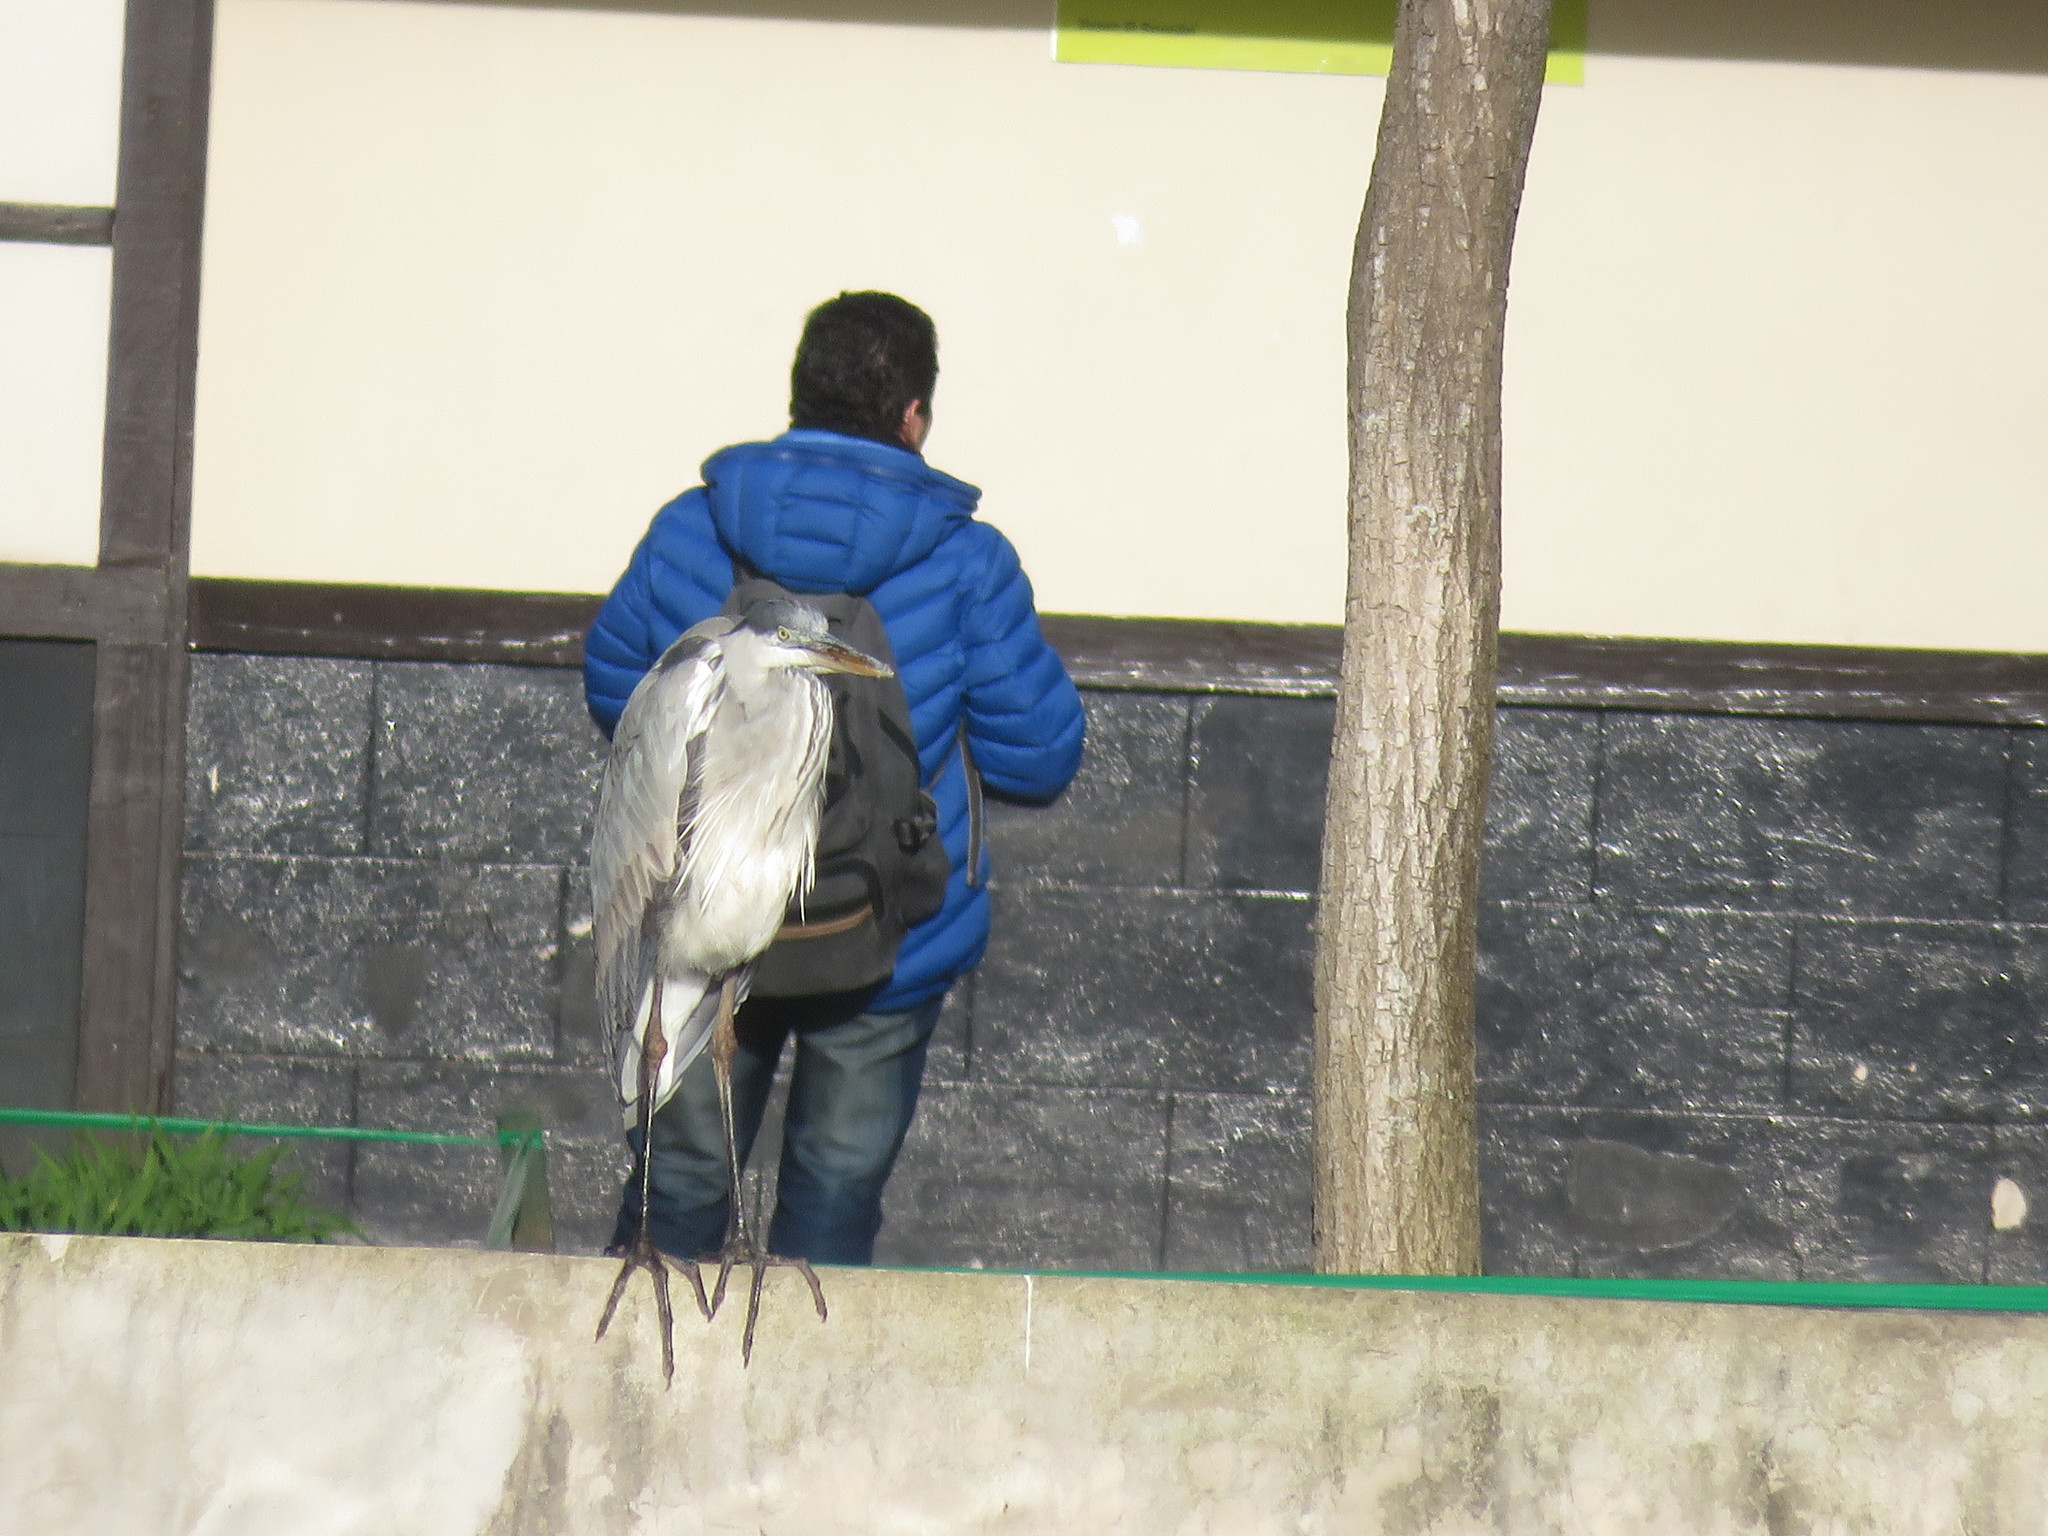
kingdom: Animalia
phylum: Chordata
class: Aves
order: Pelecaniformes
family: Ardeidae
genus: Ardea
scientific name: Ardea cocoi
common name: Cocoi heron
